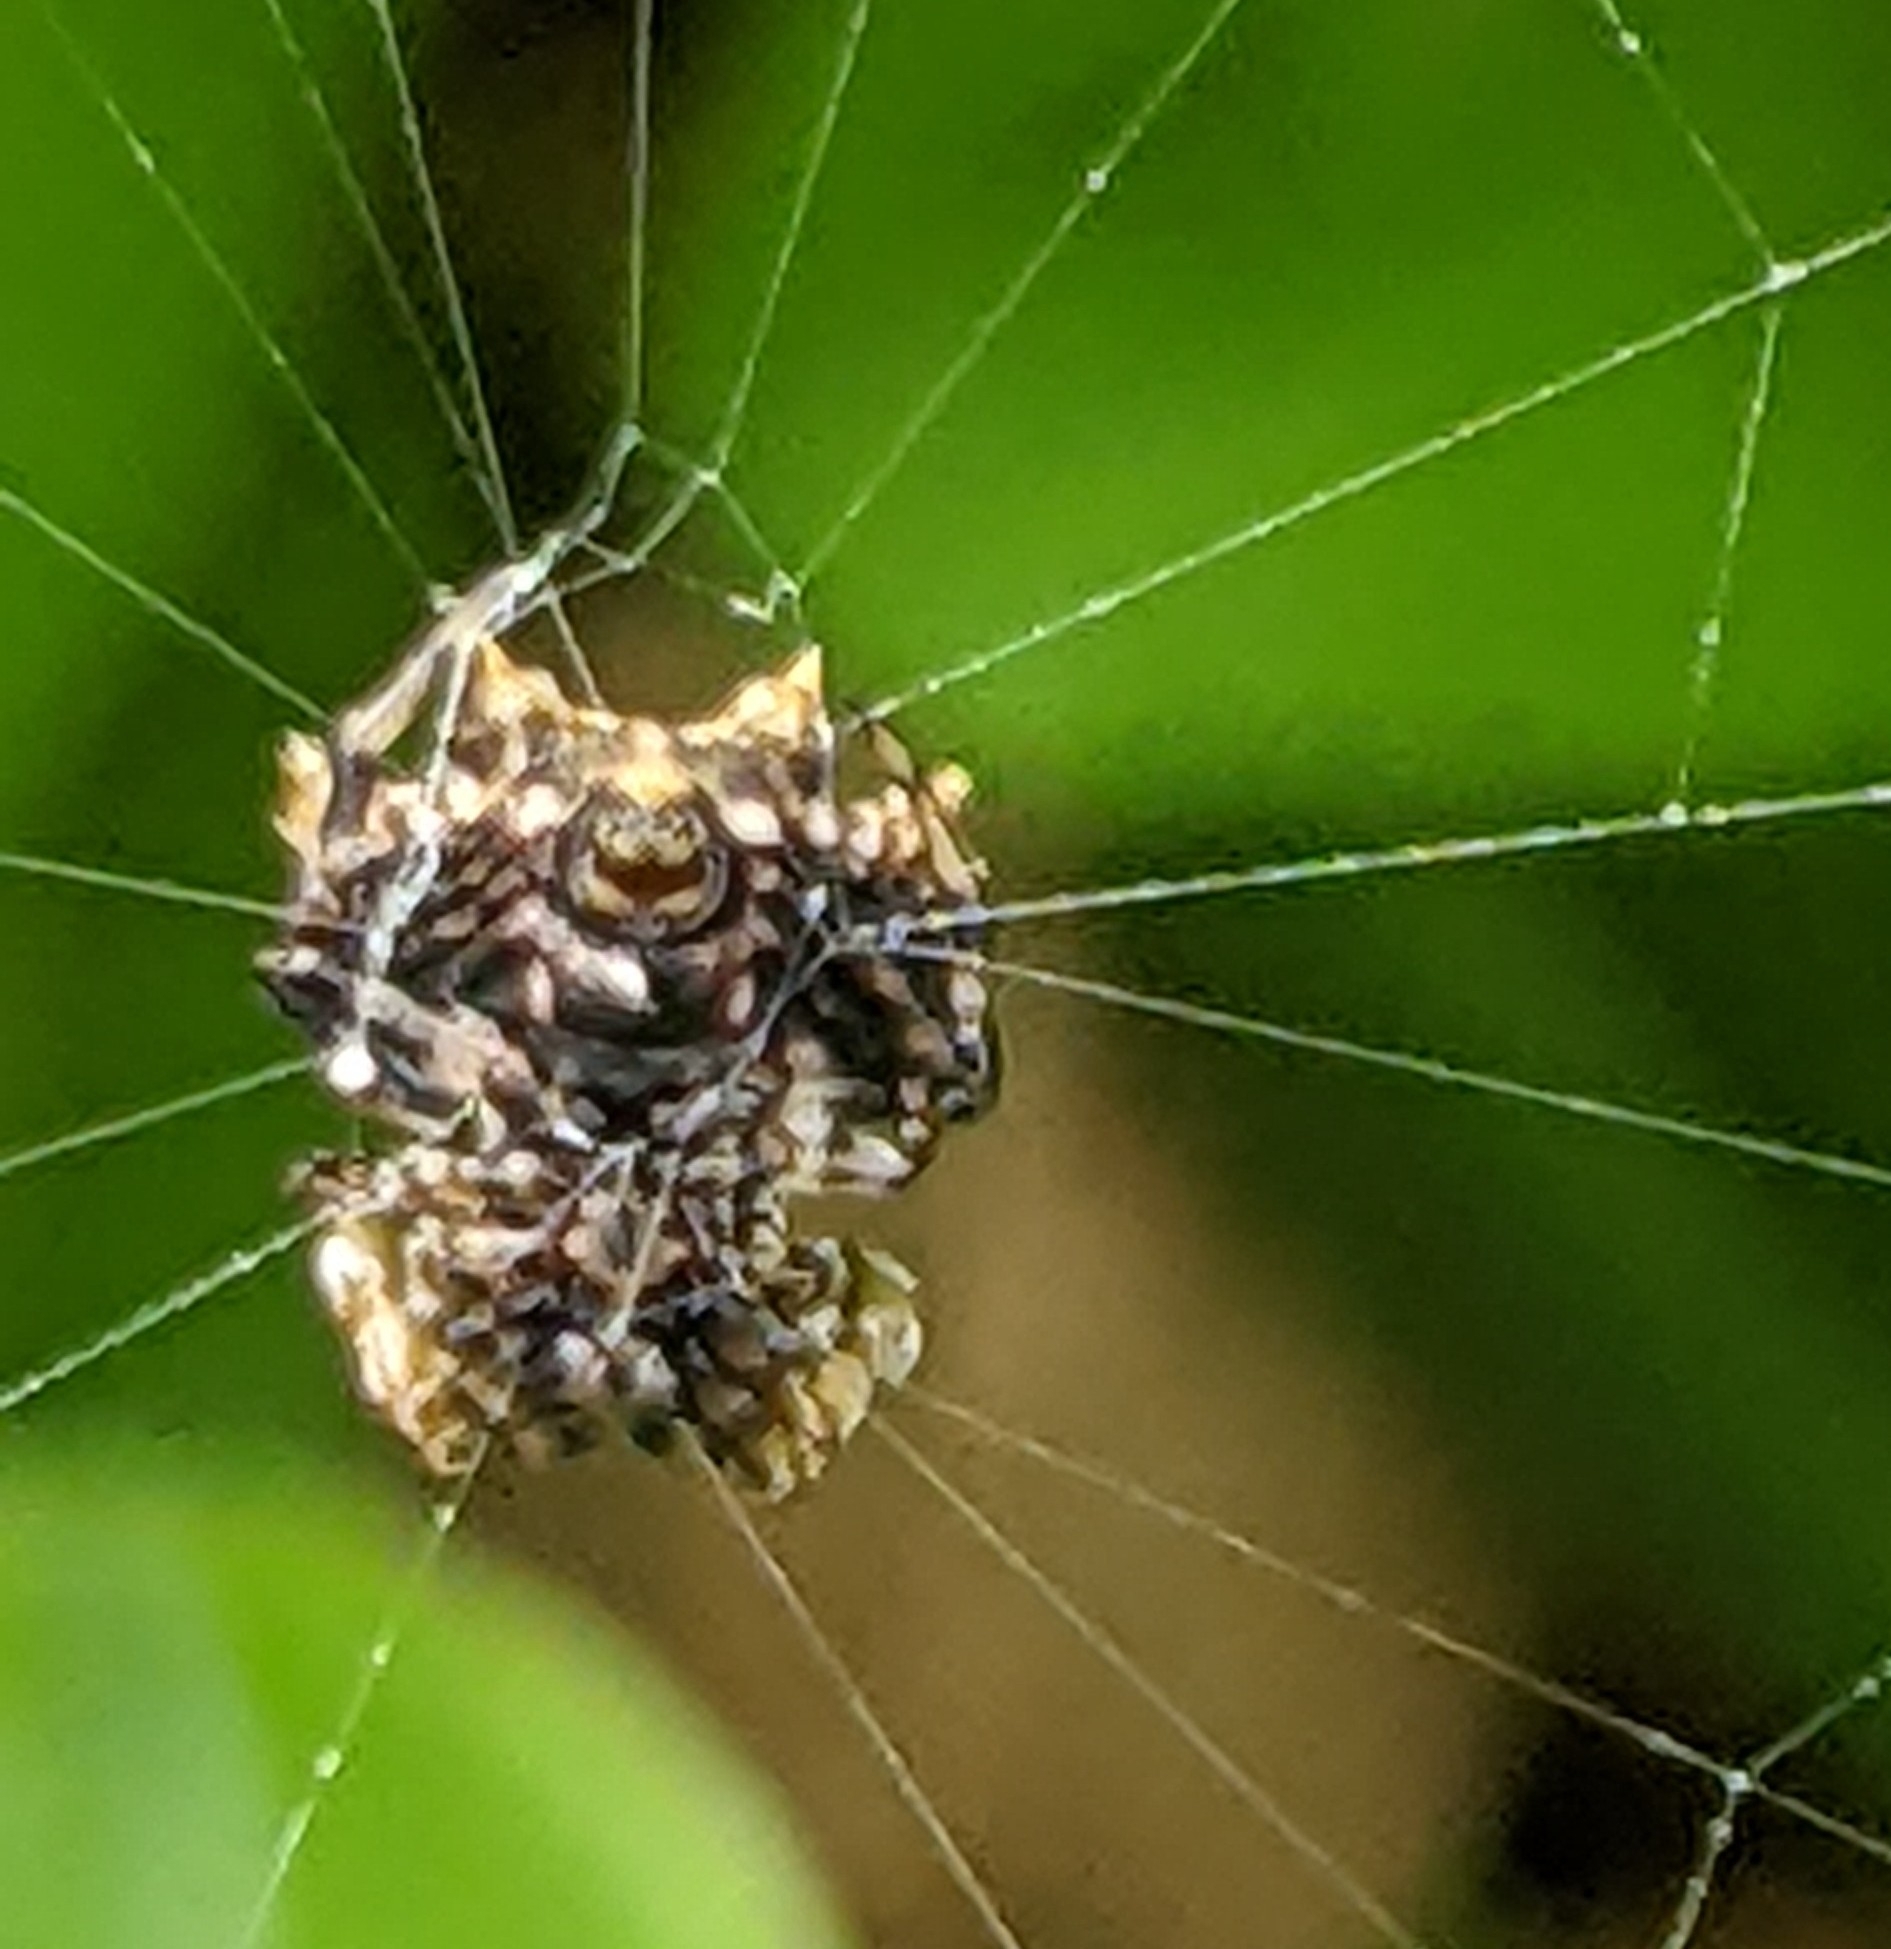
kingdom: Animalia
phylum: Arthropoda
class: Arachnida
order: Araneae
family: Araneidae
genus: Thelacantha
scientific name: Thelacantha brevispina
